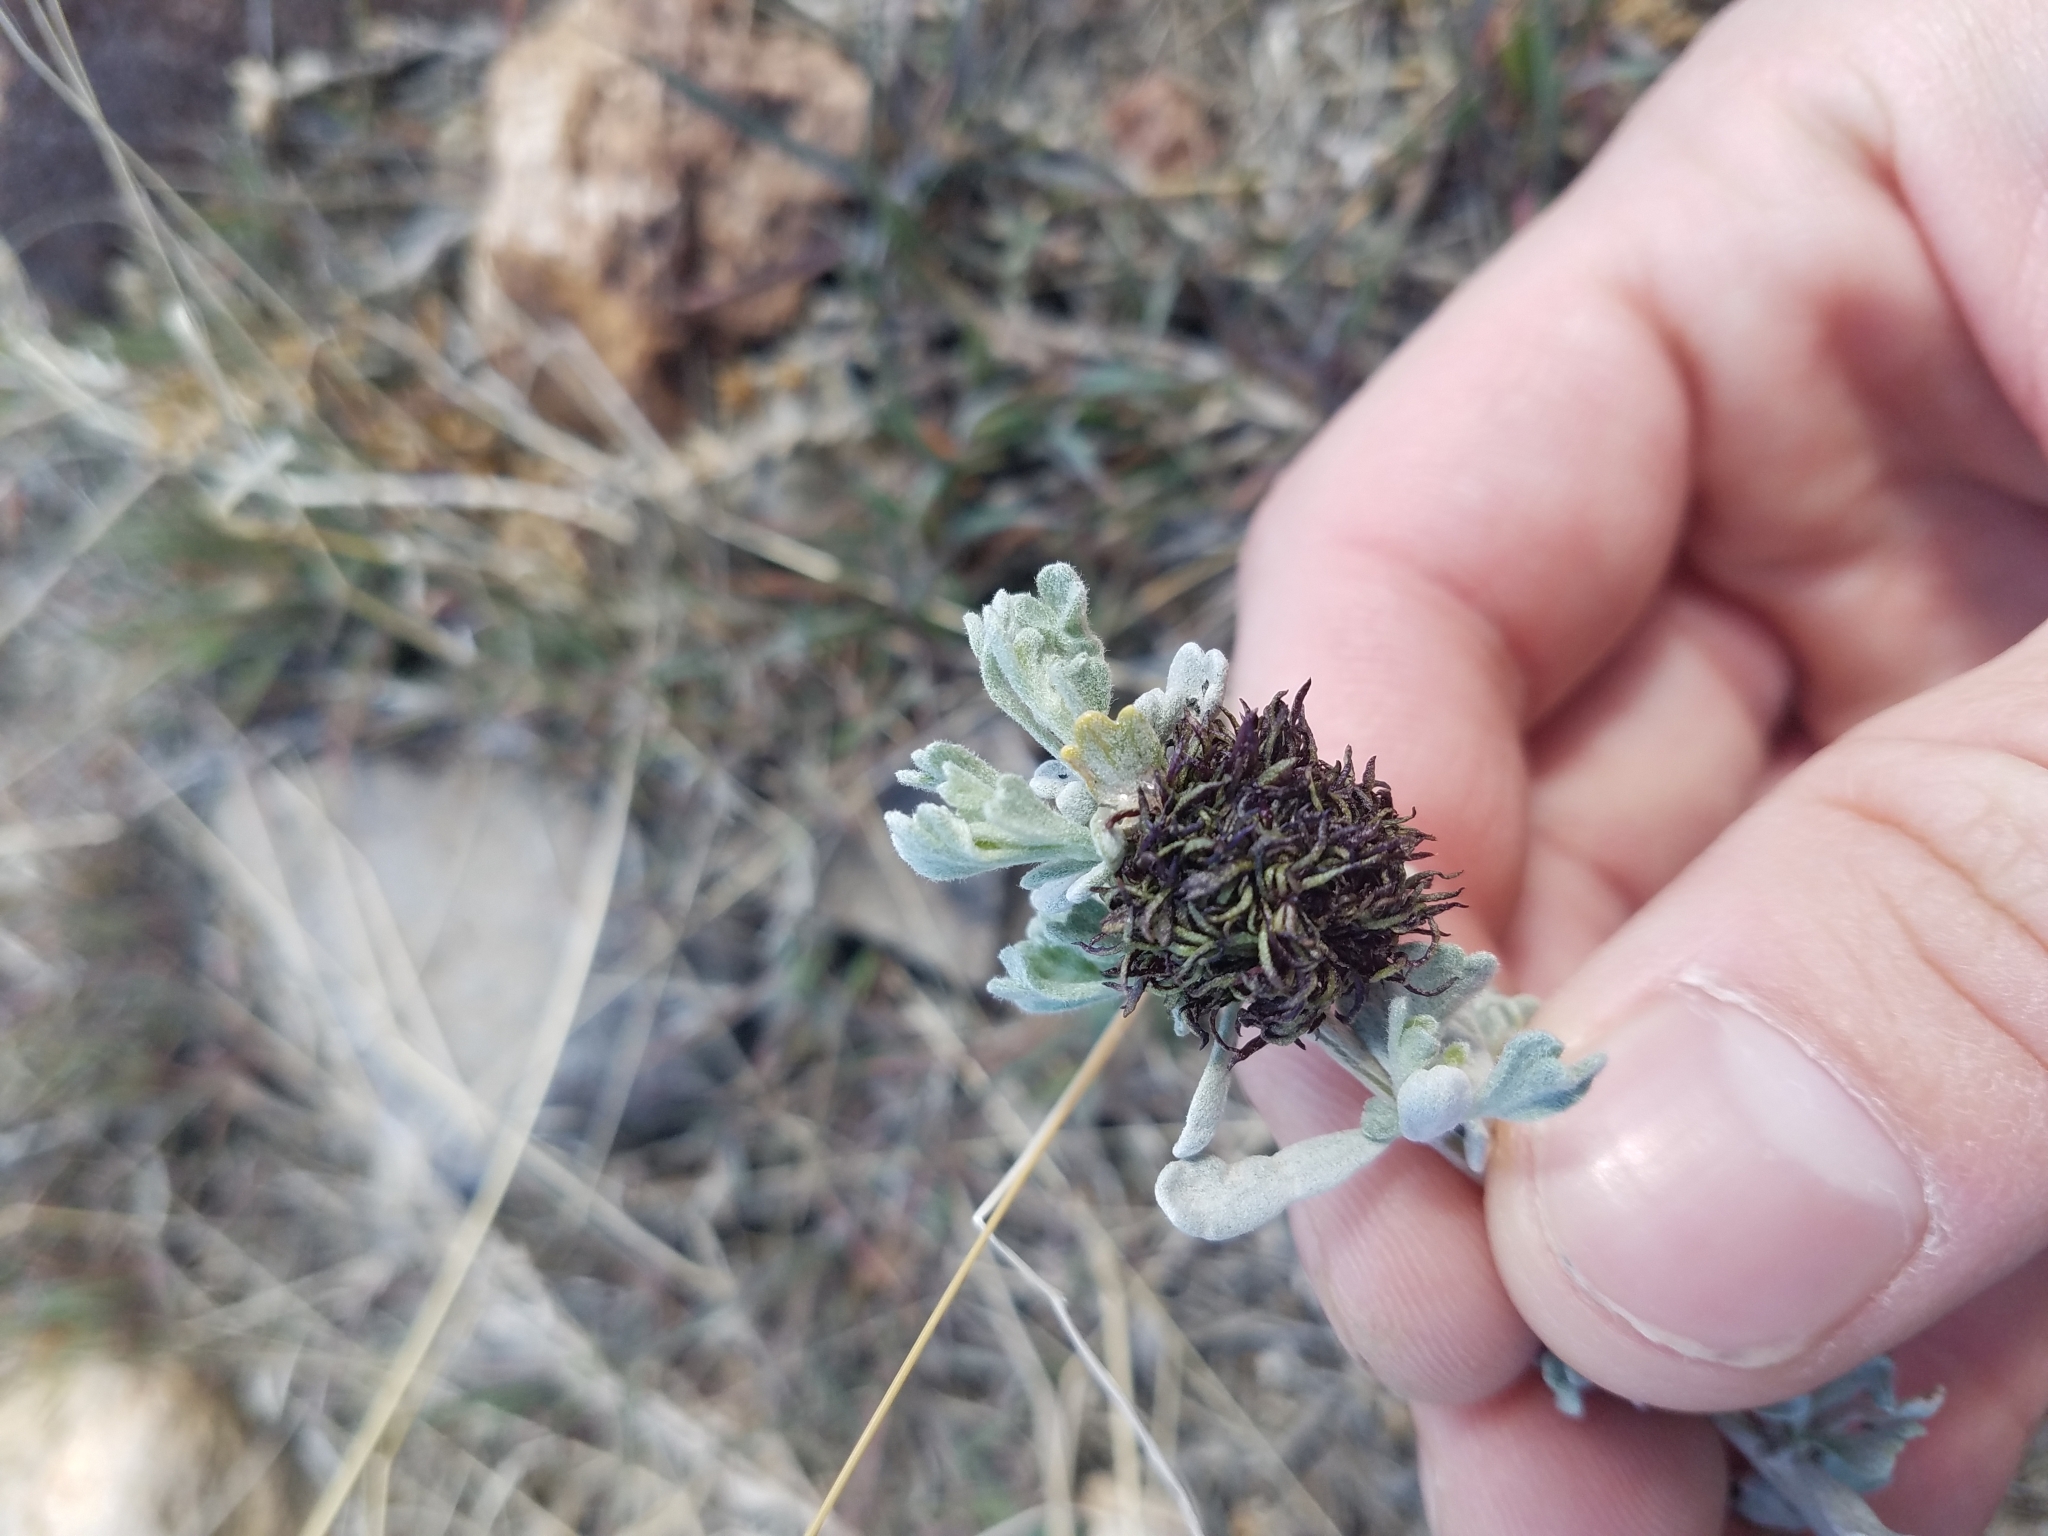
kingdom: Animalia
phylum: Arthropoda
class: Insecta
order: Diptera
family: Cecidomyiidae
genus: Rhopalomyia
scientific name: Rhopalomyia medusa
